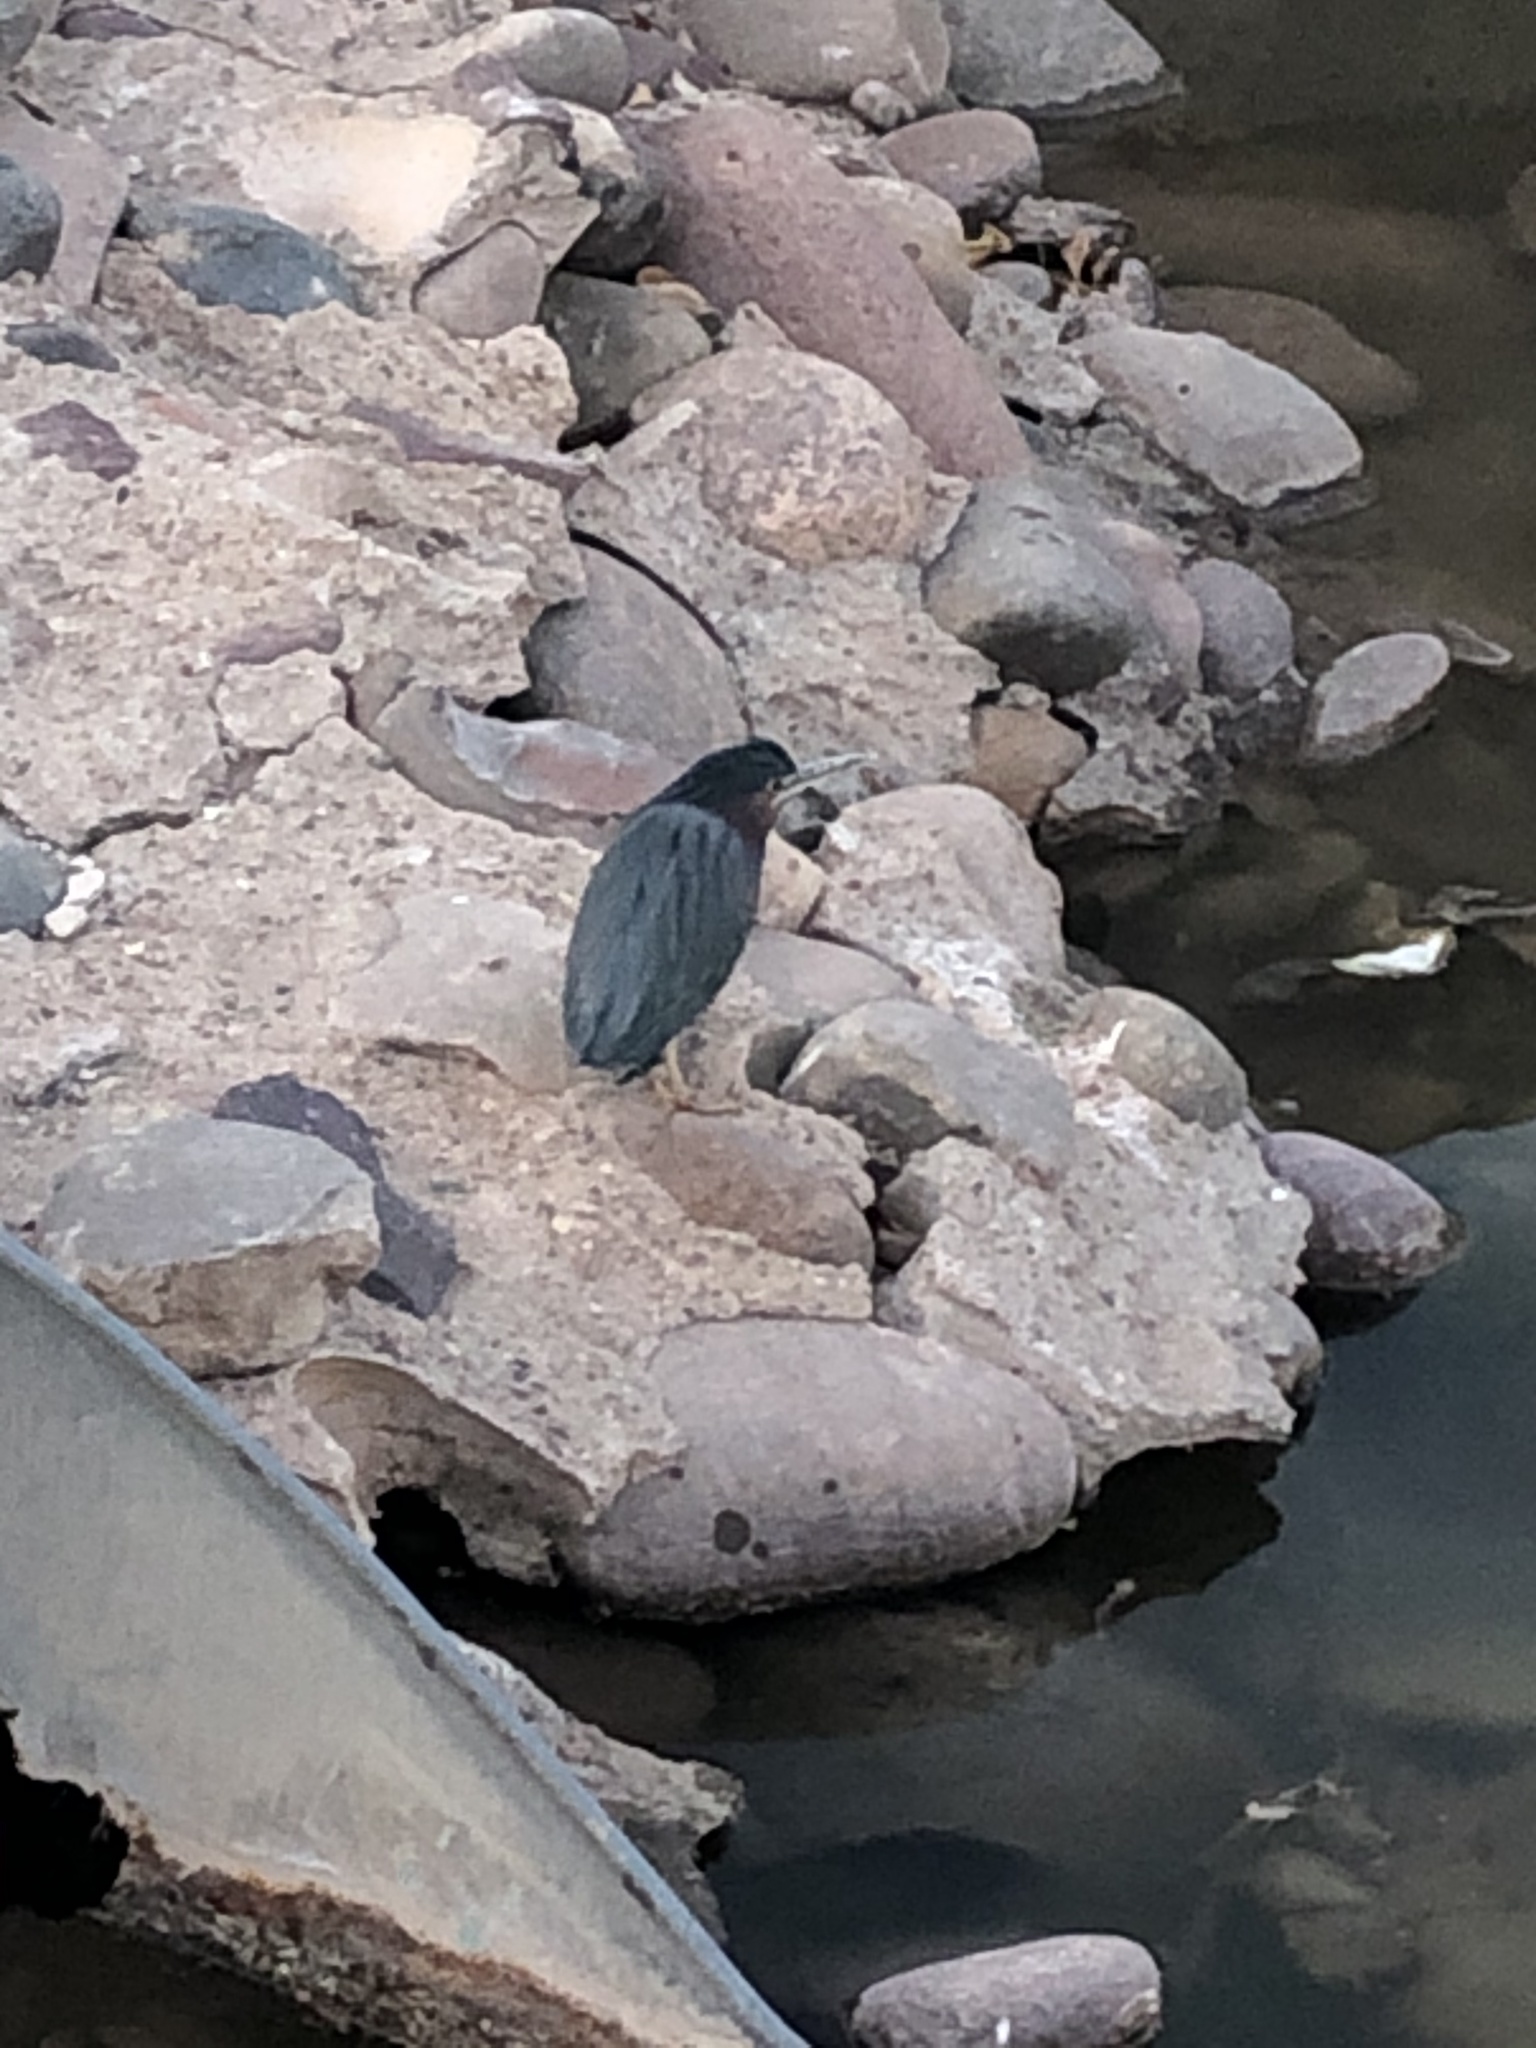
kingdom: Animalia
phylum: Chordata
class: Aves
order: Pelecaniformes
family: Ardeidae
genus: Butorides
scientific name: Butorides virescens
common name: Green heron
